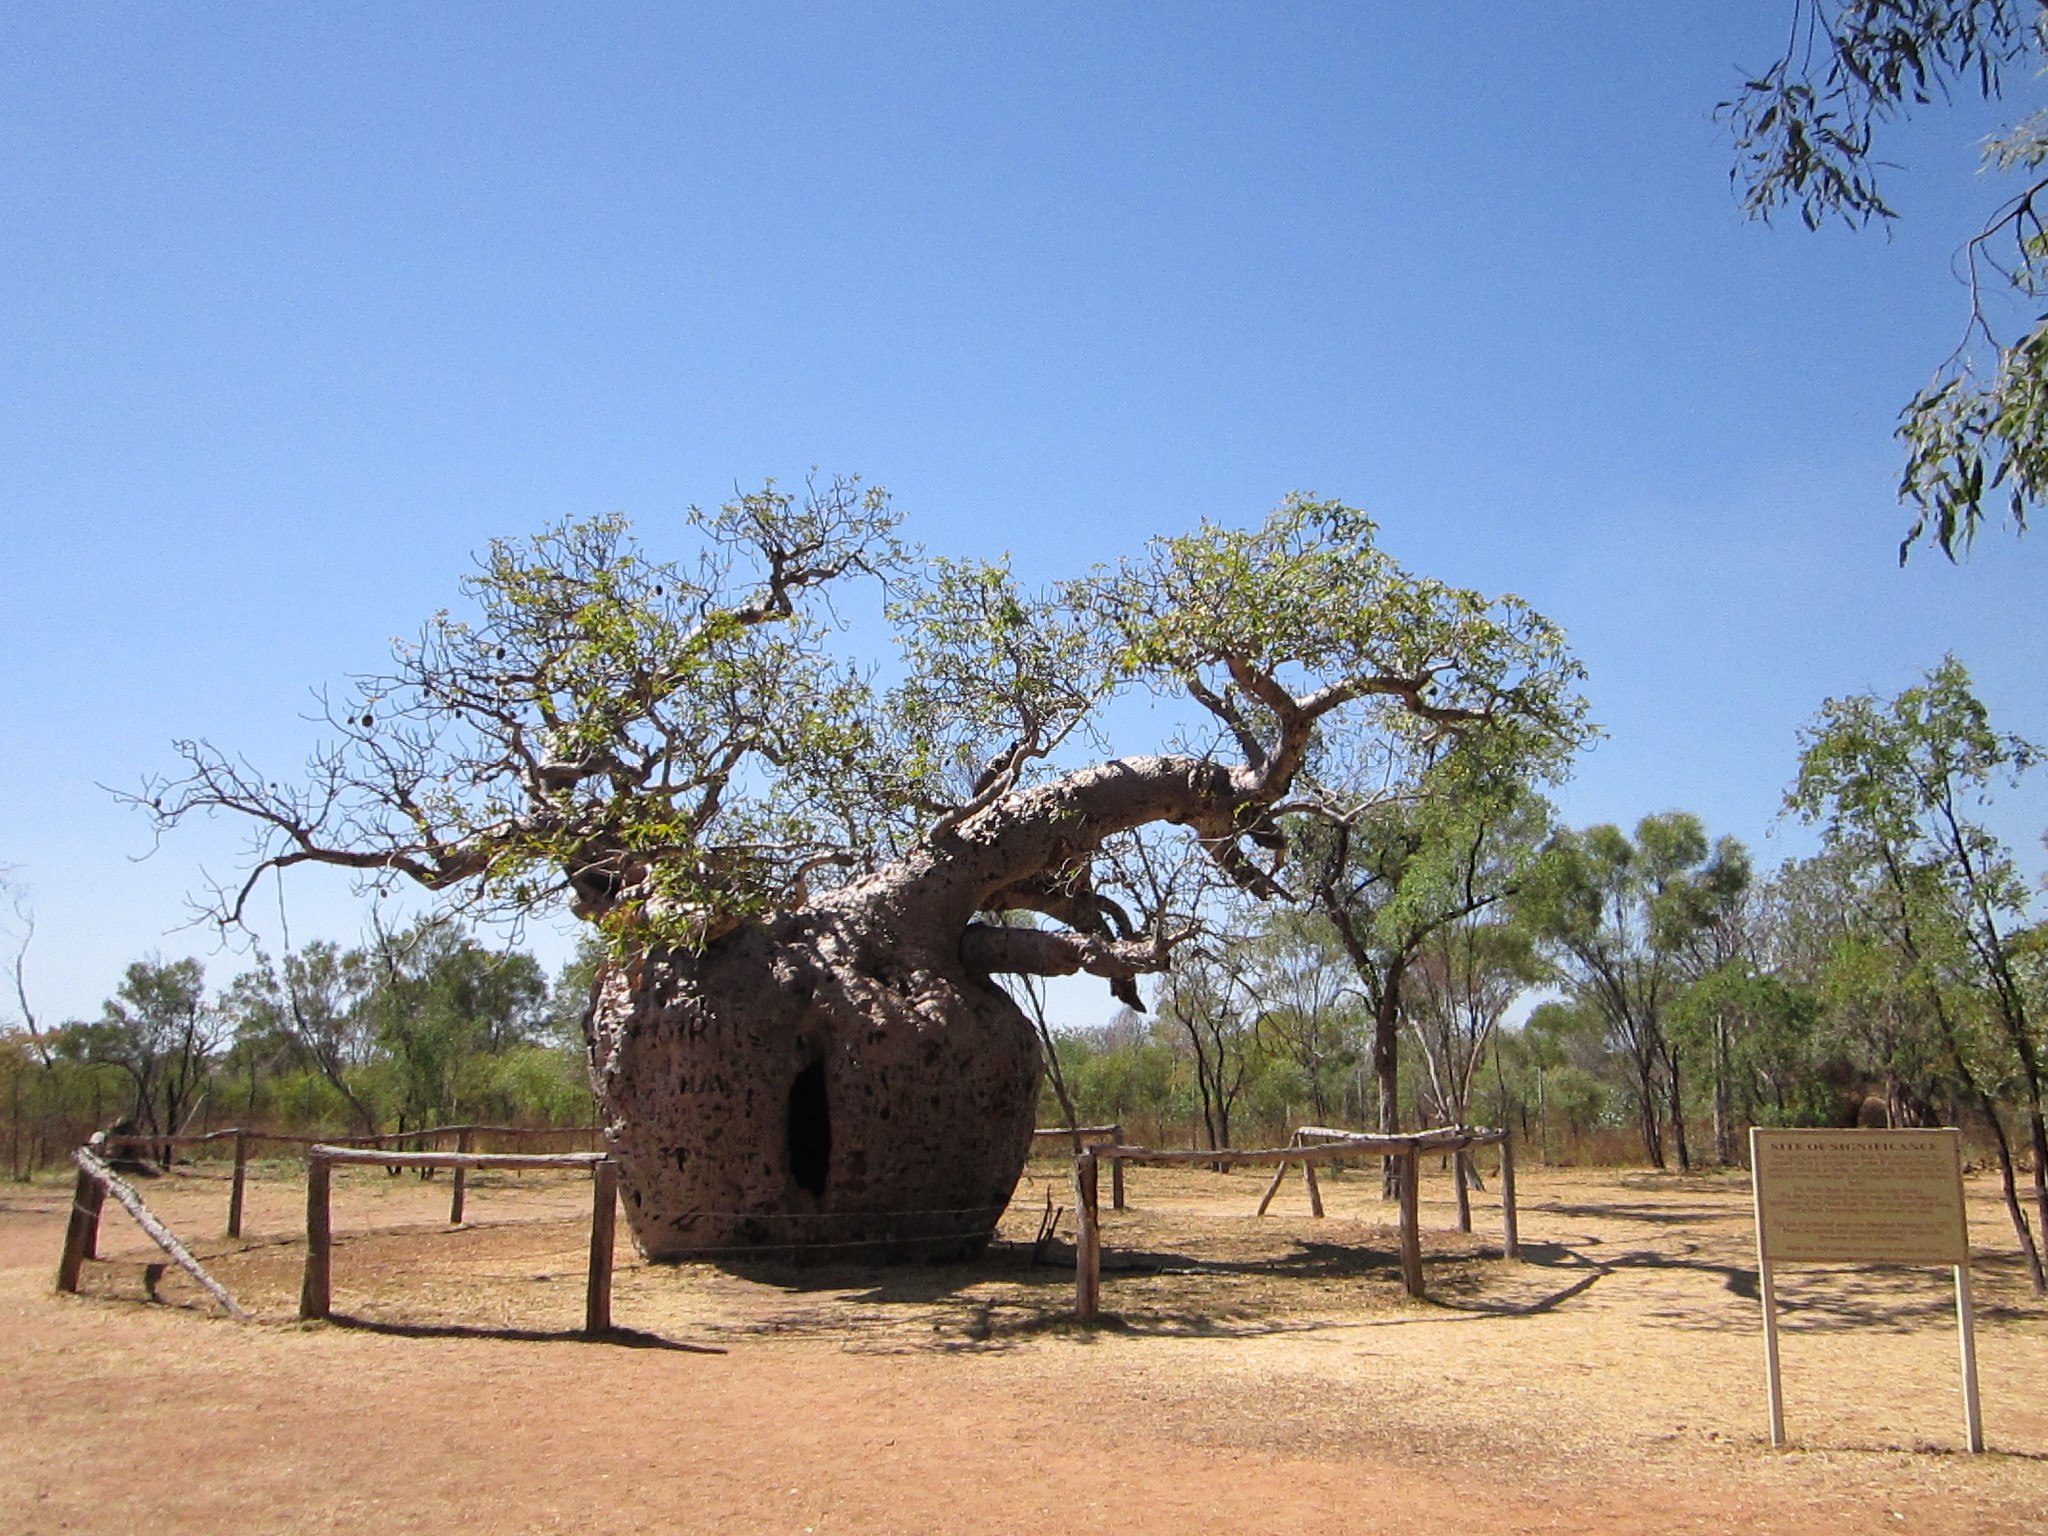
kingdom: Plantae
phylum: Tracheophyta
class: Magnoliopsida
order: Malvales
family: Malvaceae
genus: Adansonia
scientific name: Adansonia gregorii
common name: Australian baobab
